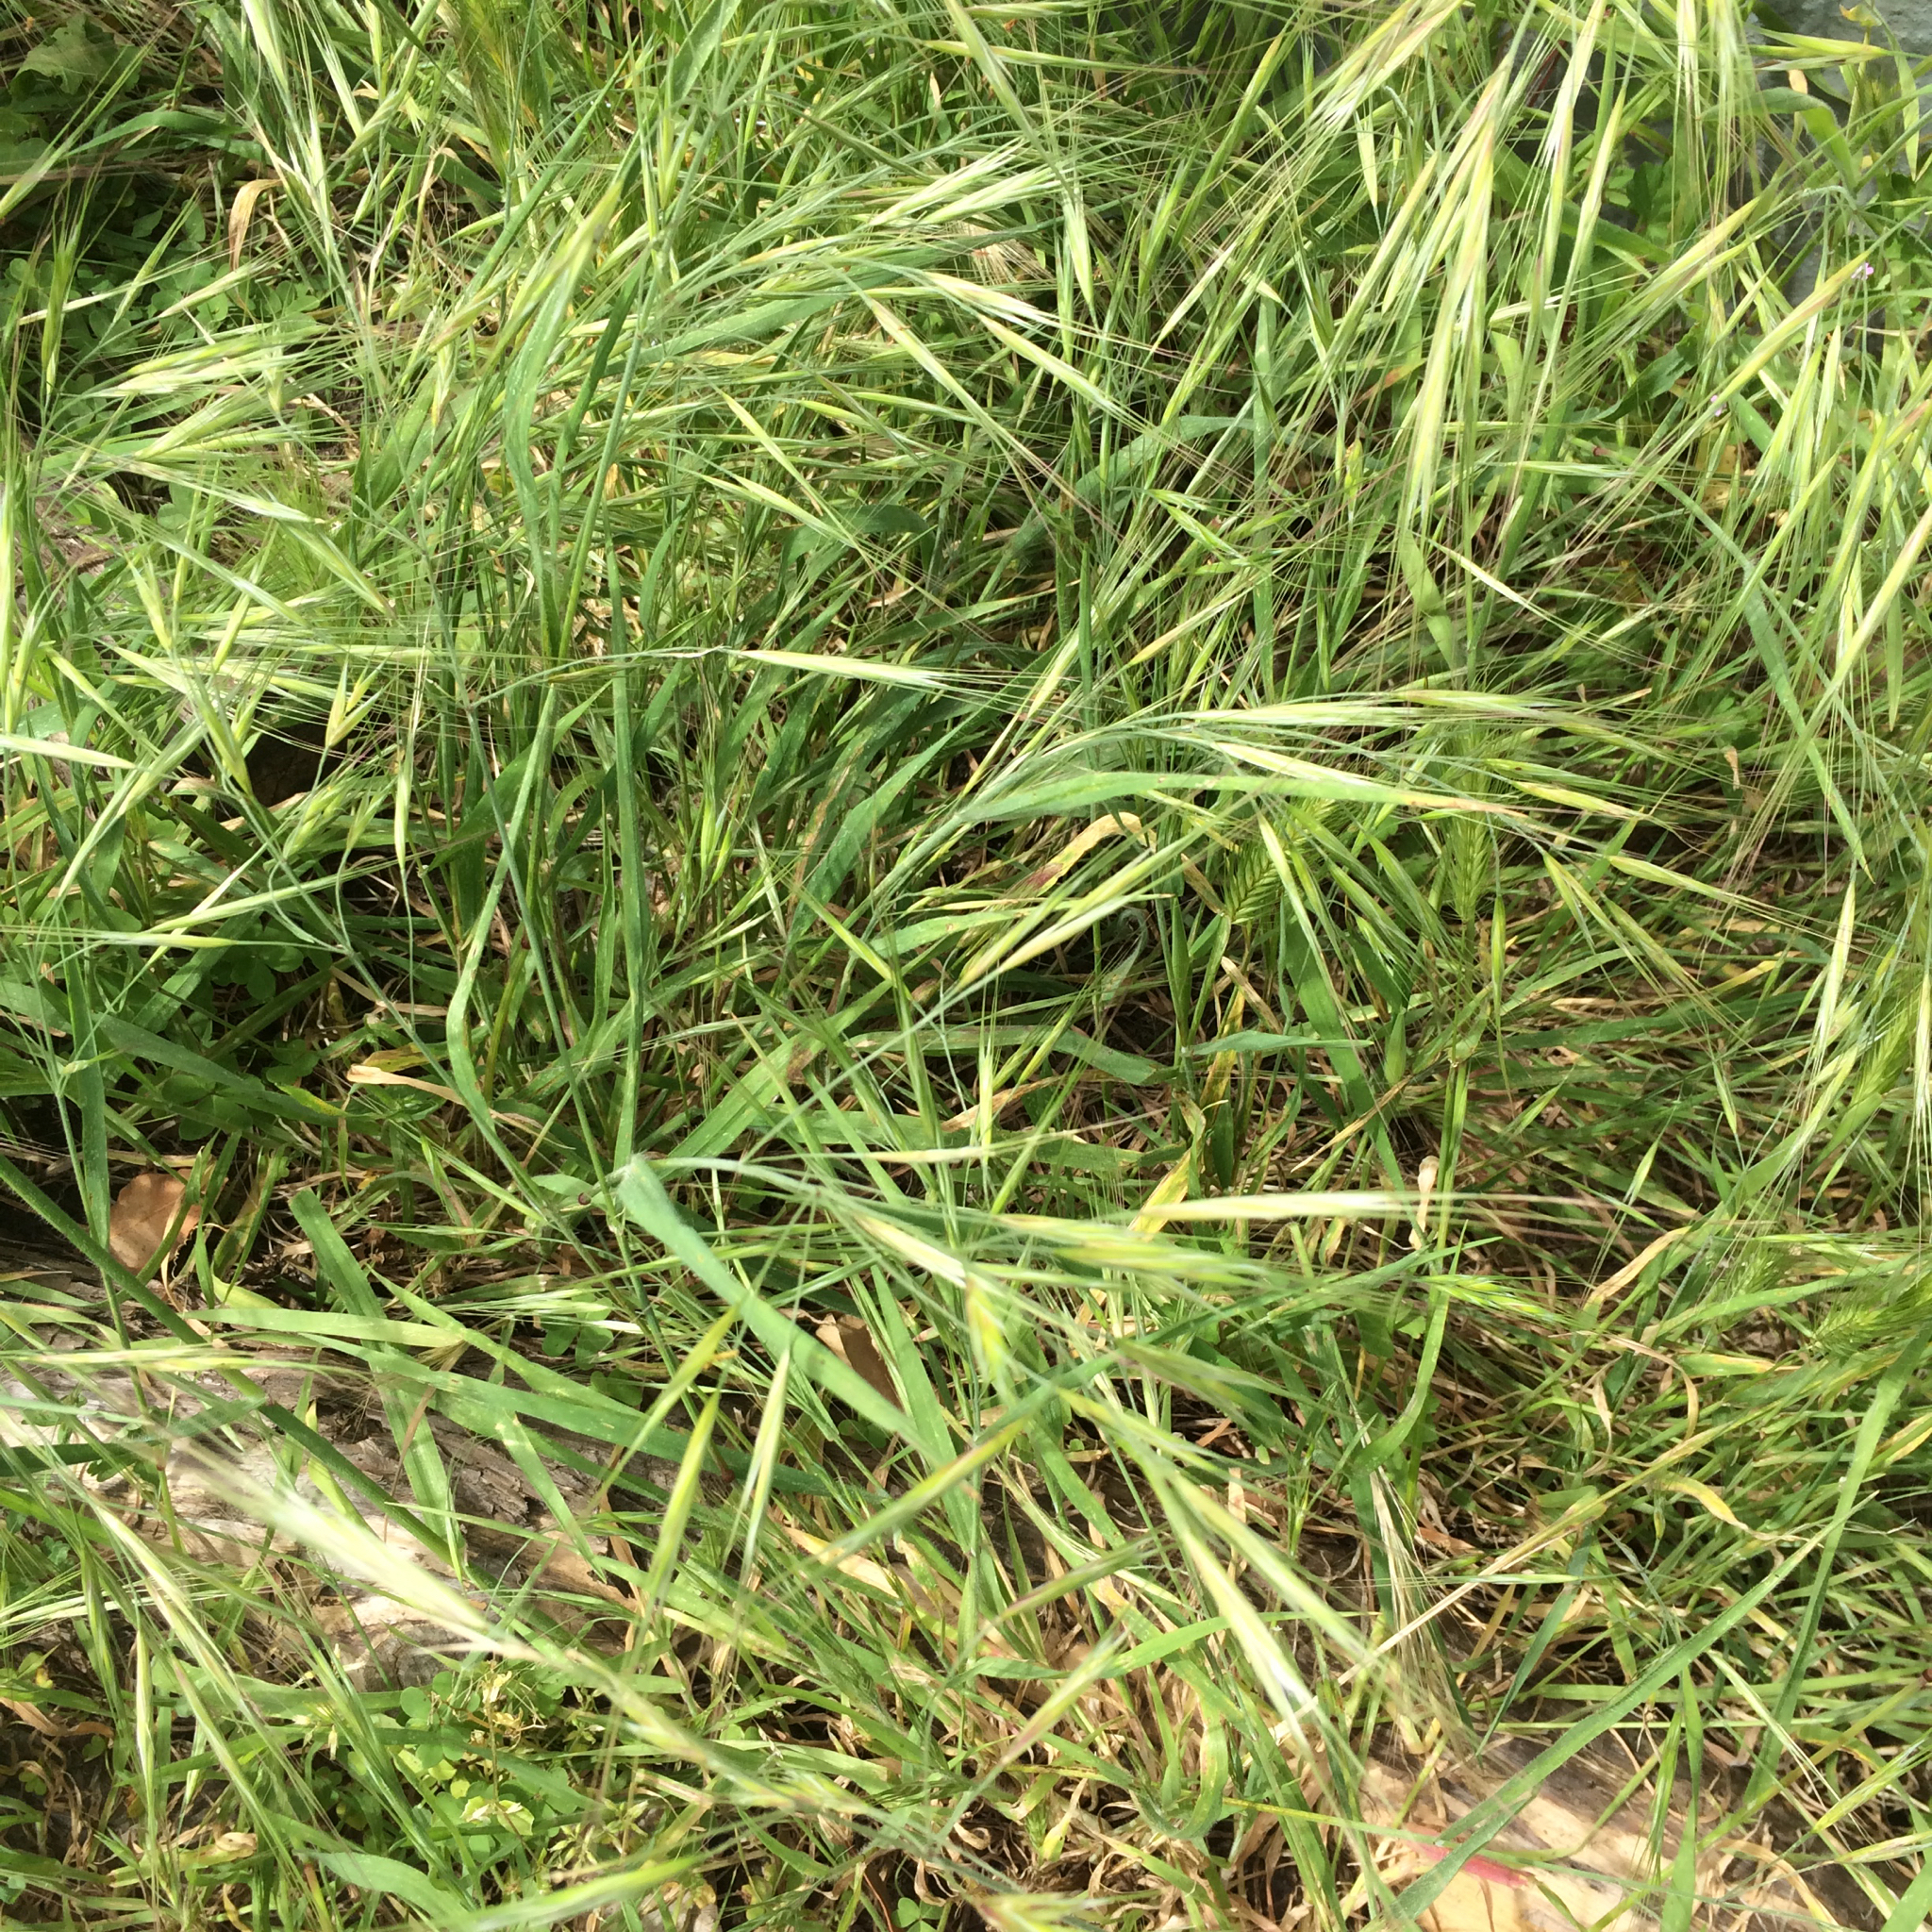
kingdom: Plantae
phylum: Tracheophyta
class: Liliopsida
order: Poales
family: Poaceae
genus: Bromus
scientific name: Bromus diandrus
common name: Ripgut brome
